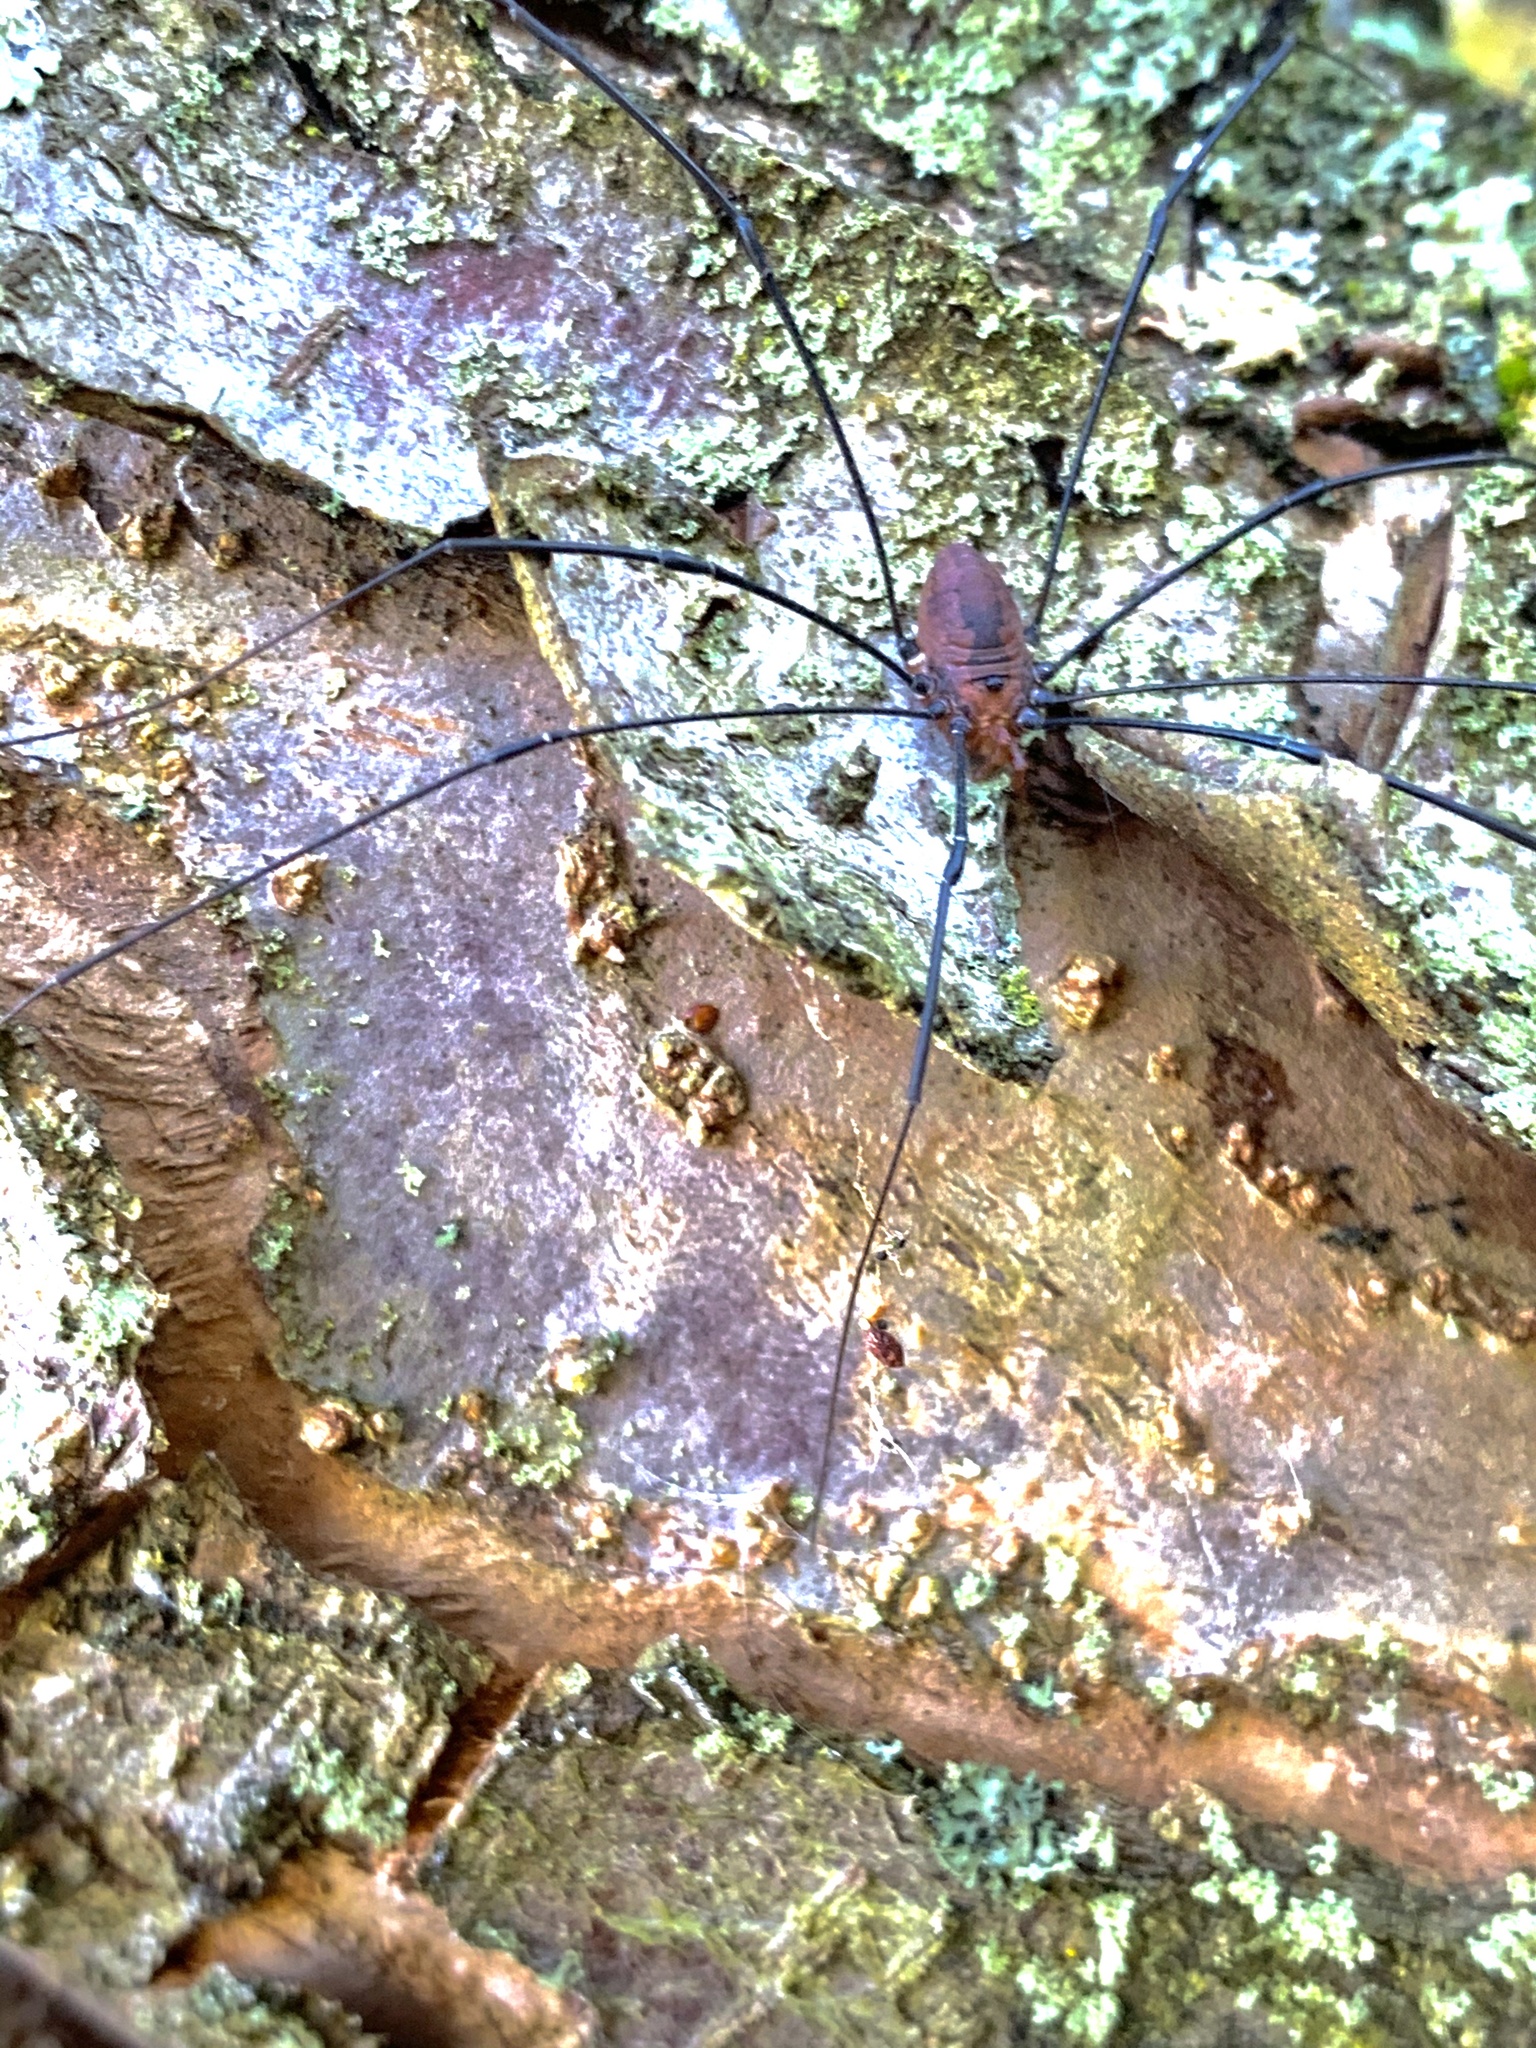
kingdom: Animalia
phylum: Arthropoda
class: Arachnida
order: Opiliones
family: Sclerosomatidae
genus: Leiobunum
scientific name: Leiobunum vittatum
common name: Eastern harvestman
